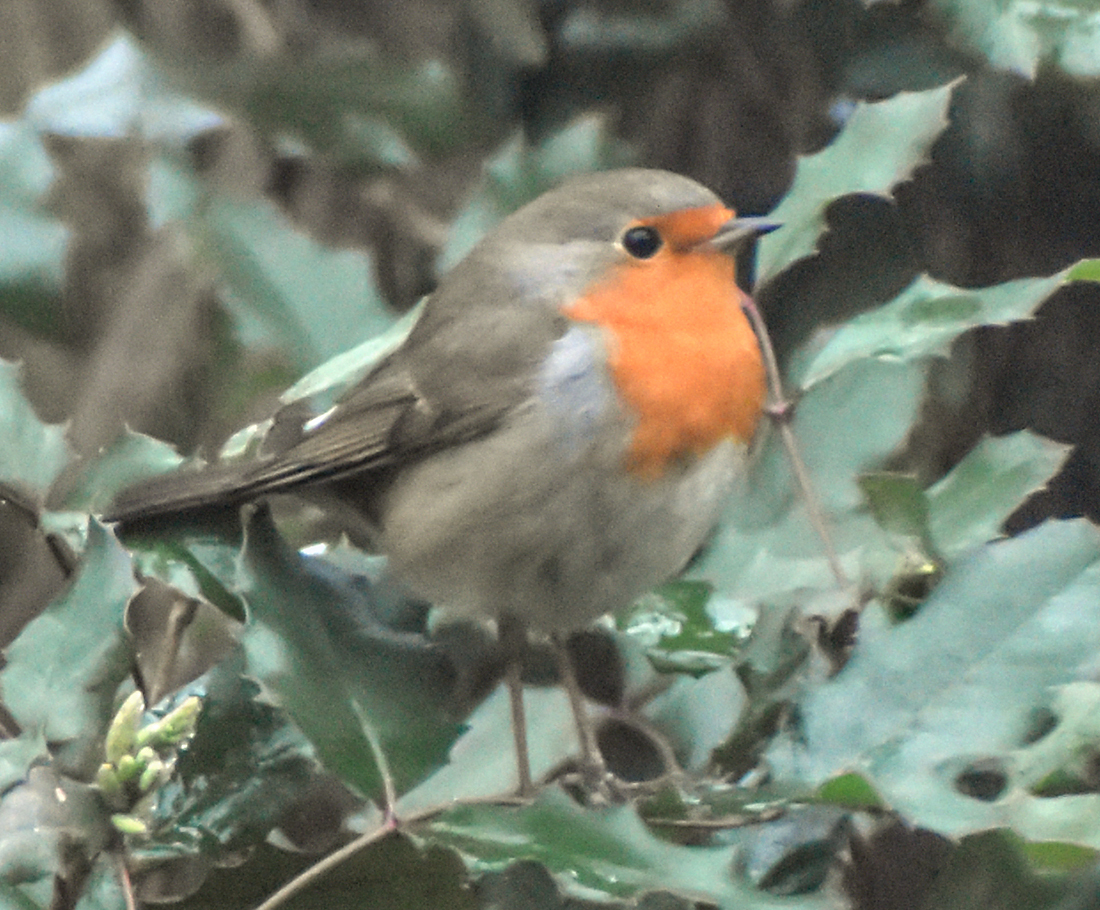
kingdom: Animalia
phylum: Chordata
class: Aves
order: Passeriformes
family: Muscicapidae
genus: Erithacus
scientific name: Erithacus rubecula
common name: European robin
